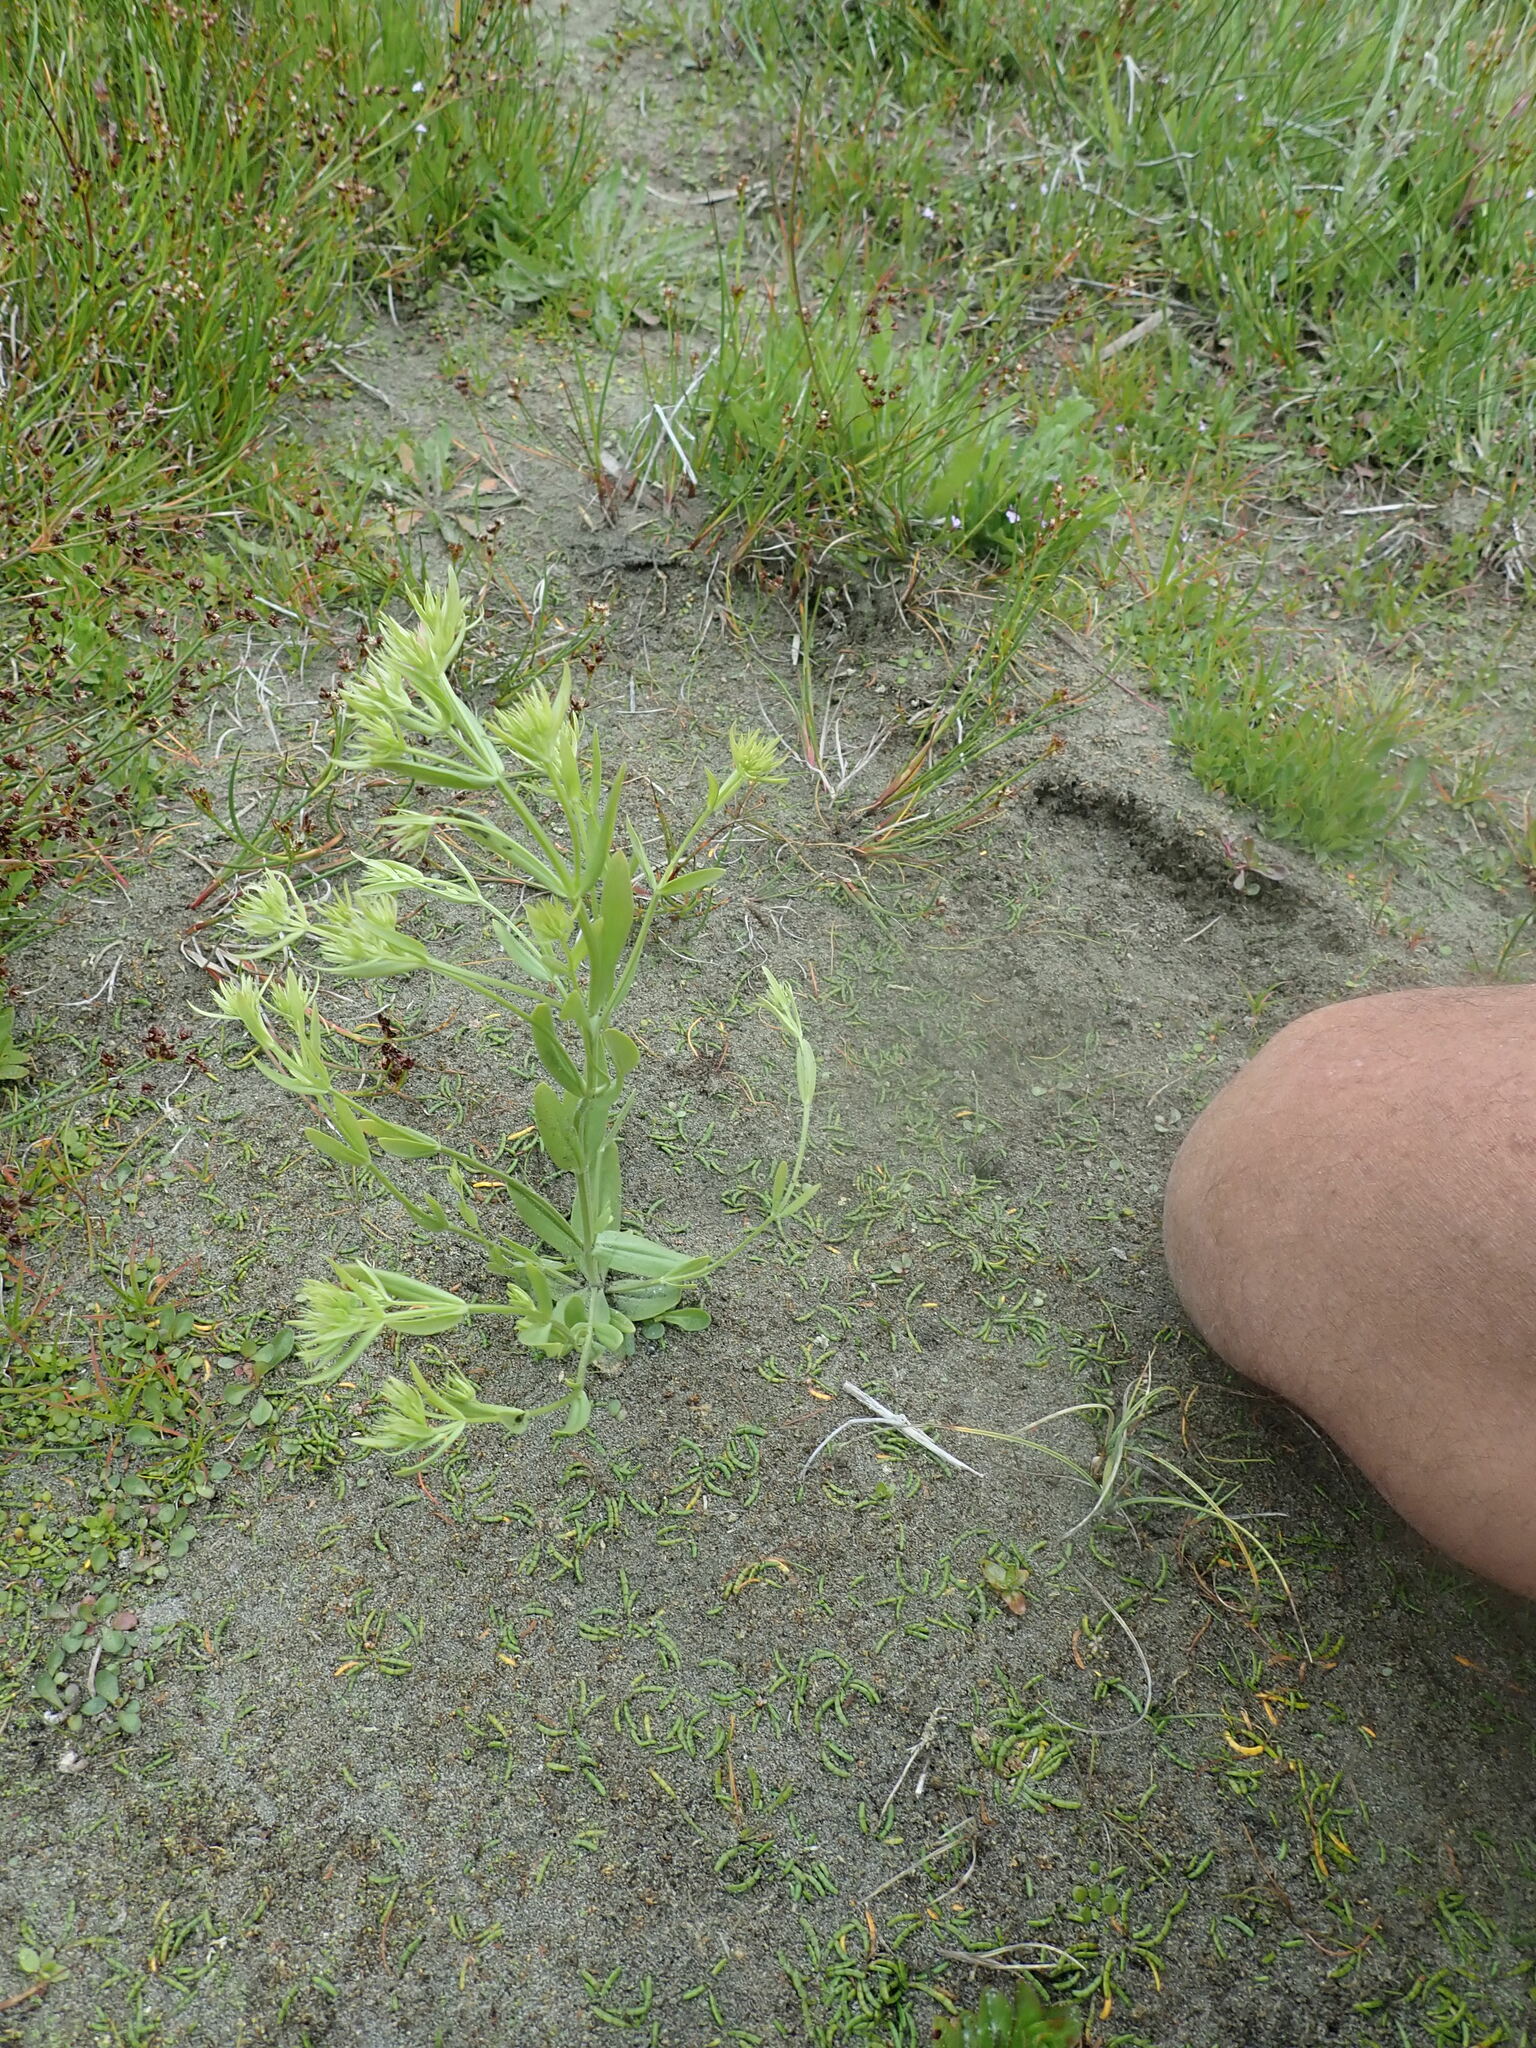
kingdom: Plantae
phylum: Tracheophyta
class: Magnoliopsida
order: Gentianales
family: Gentianaceae
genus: Centaurium
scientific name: Centaurium erythraea
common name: Common centaury
